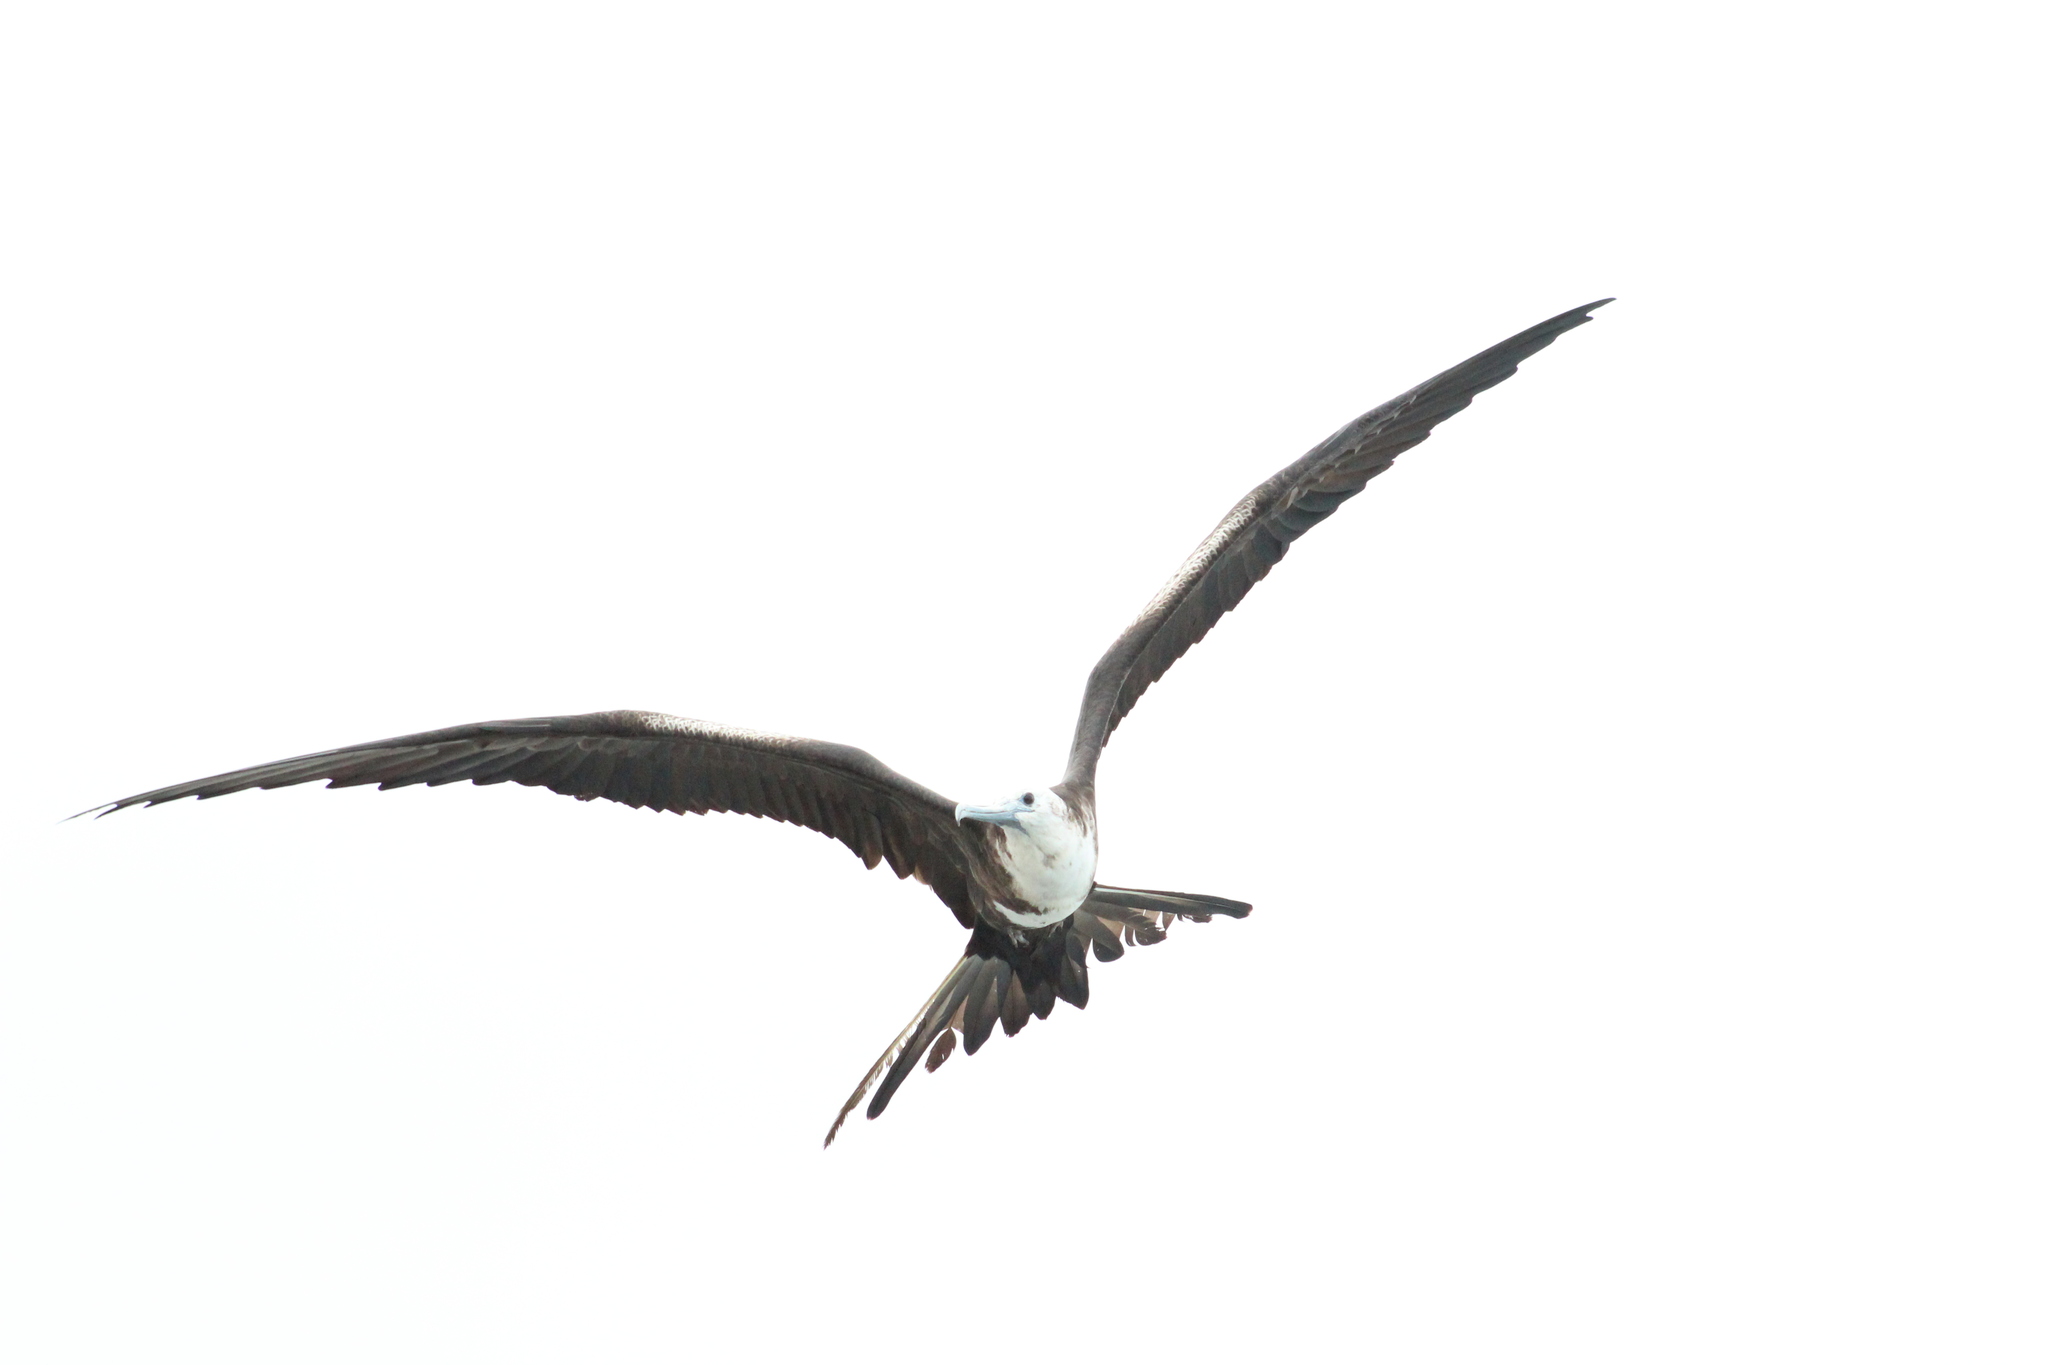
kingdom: Animalia
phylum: Chordata
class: Aves
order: Suliformes
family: Fregatidae
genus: Fregata
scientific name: Fregata magnificens
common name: Magnificent frigatebird
